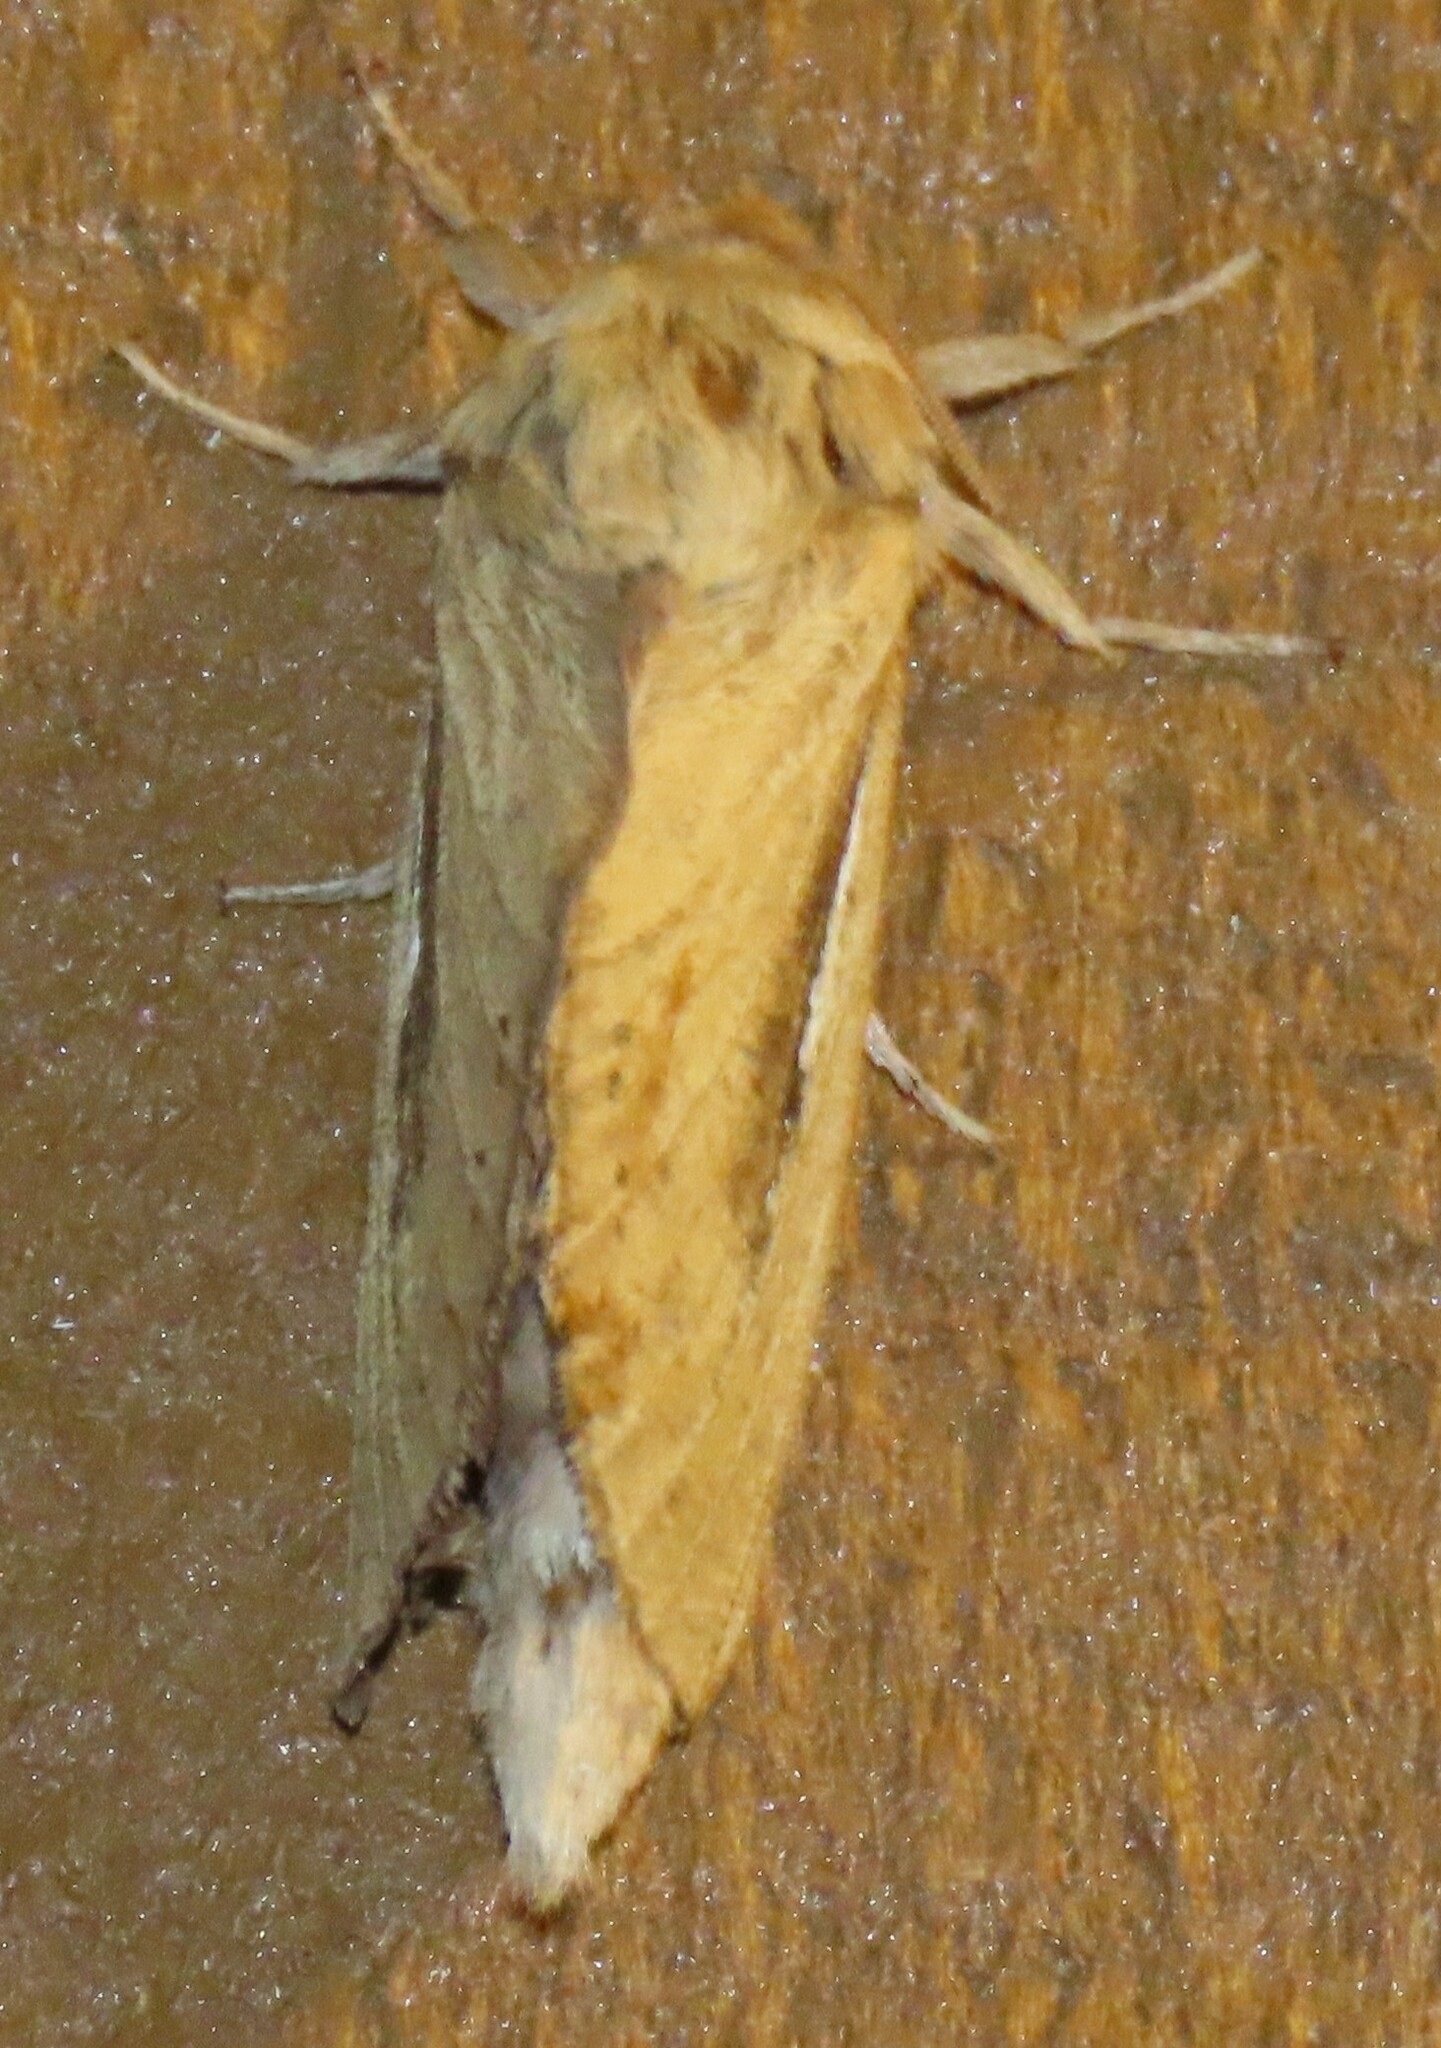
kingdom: Animalia
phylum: Arthropoda
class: Insecta
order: Lepidoptera
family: Hepialidae
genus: Wiseana
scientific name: Wiseana umbraculatus
